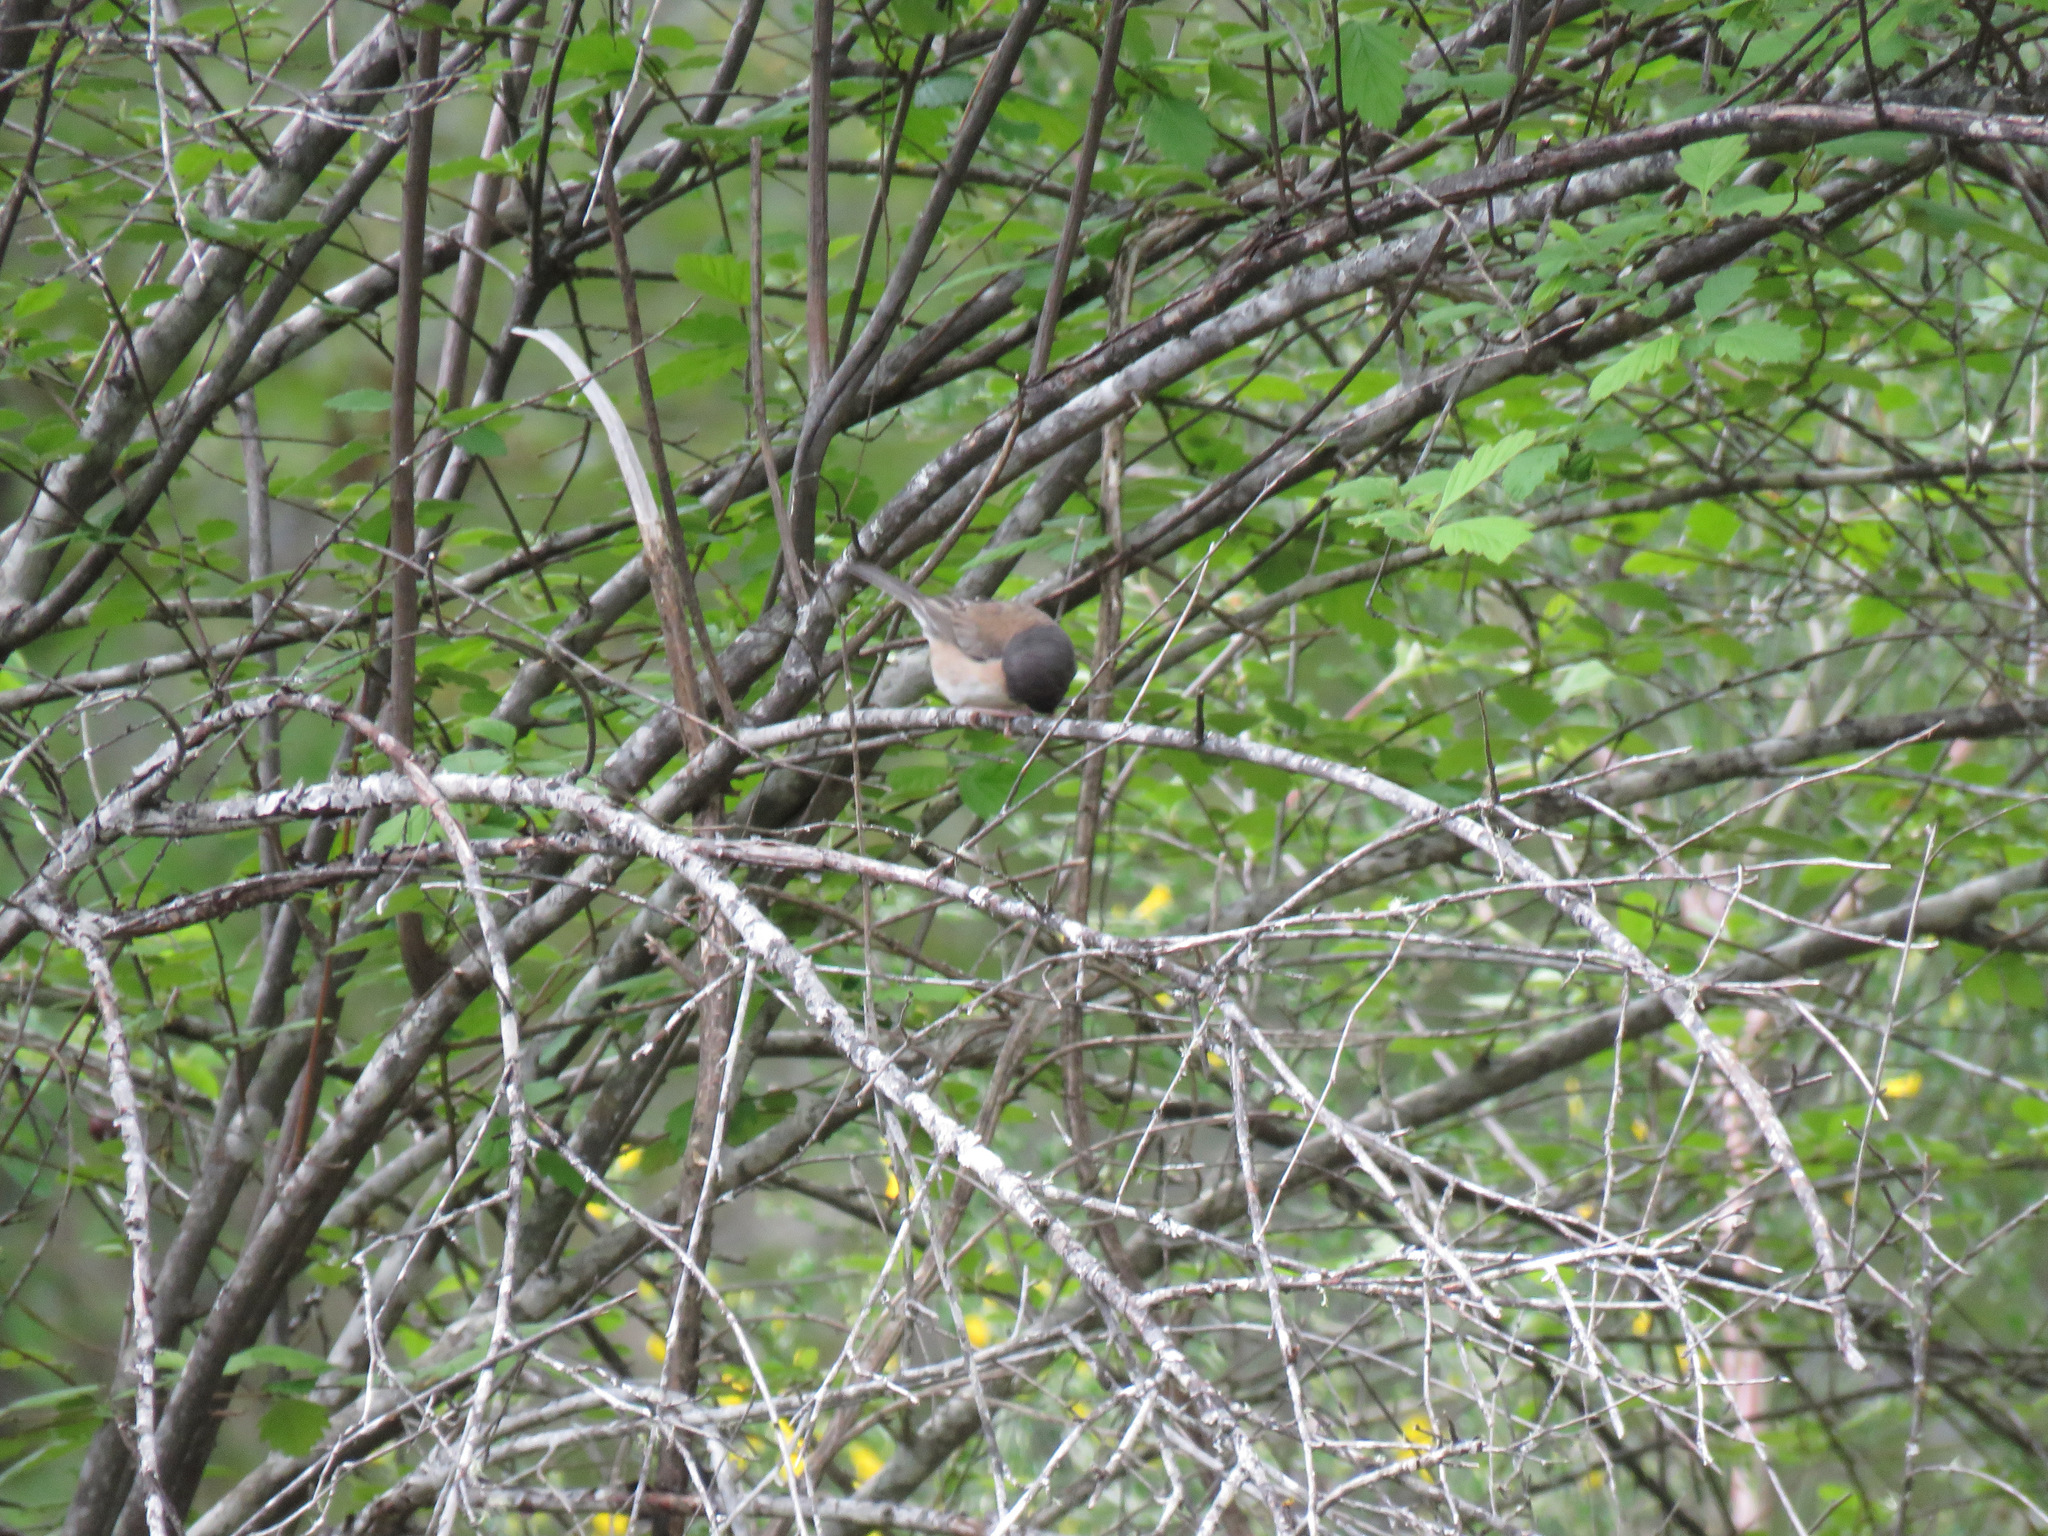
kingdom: Animalia
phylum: Chordata
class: Aves
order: Passeriformes
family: Passerellidae
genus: Junco
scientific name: Junco hyemalis
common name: Dark-eyed junco
